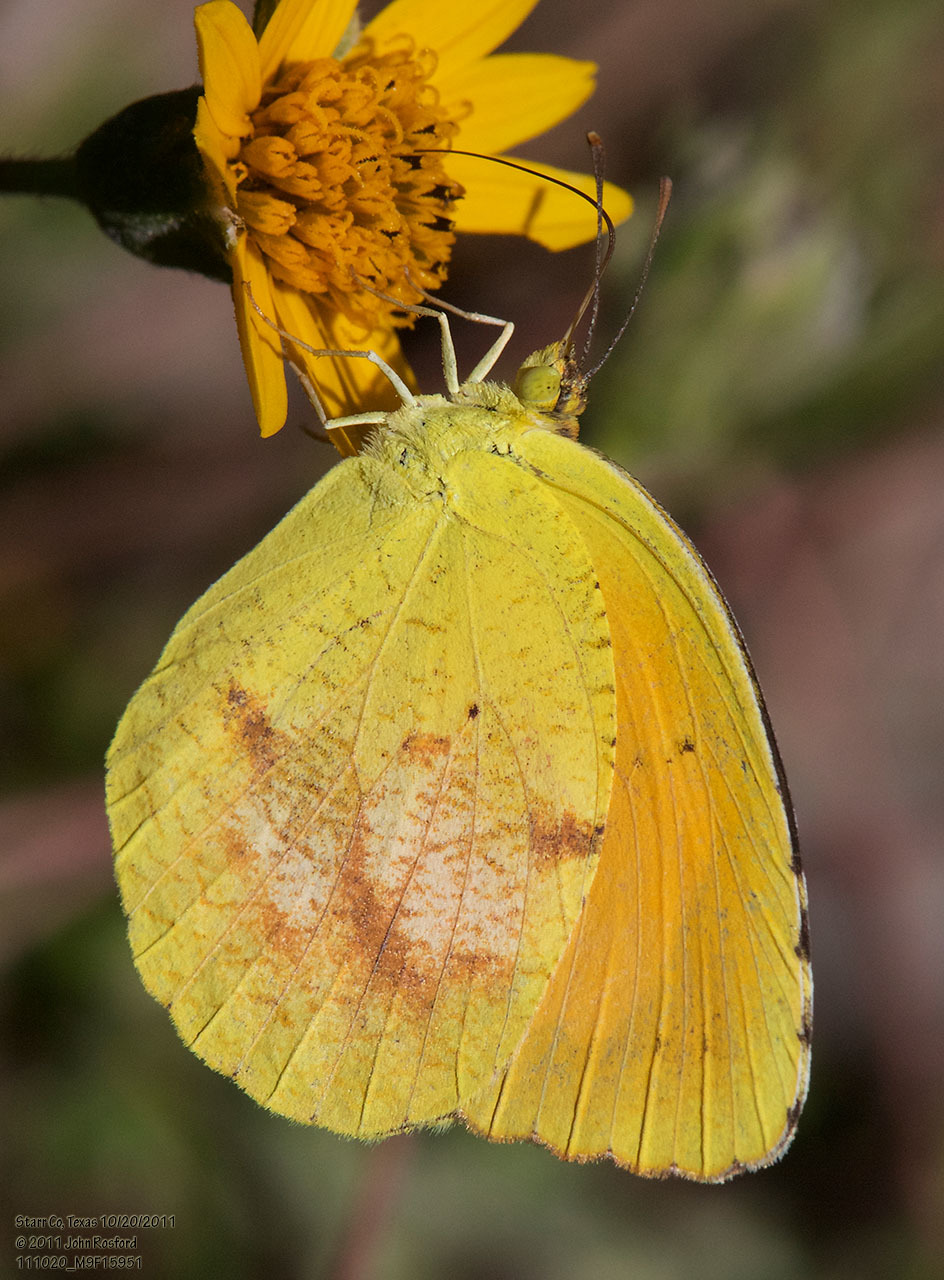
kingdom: Animalia
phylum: Arthropoda
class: Insecta
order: Lepidoptera
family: Pieridae
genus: Abaeis
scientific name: Abaeis nicippe
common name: Sleepy orange
